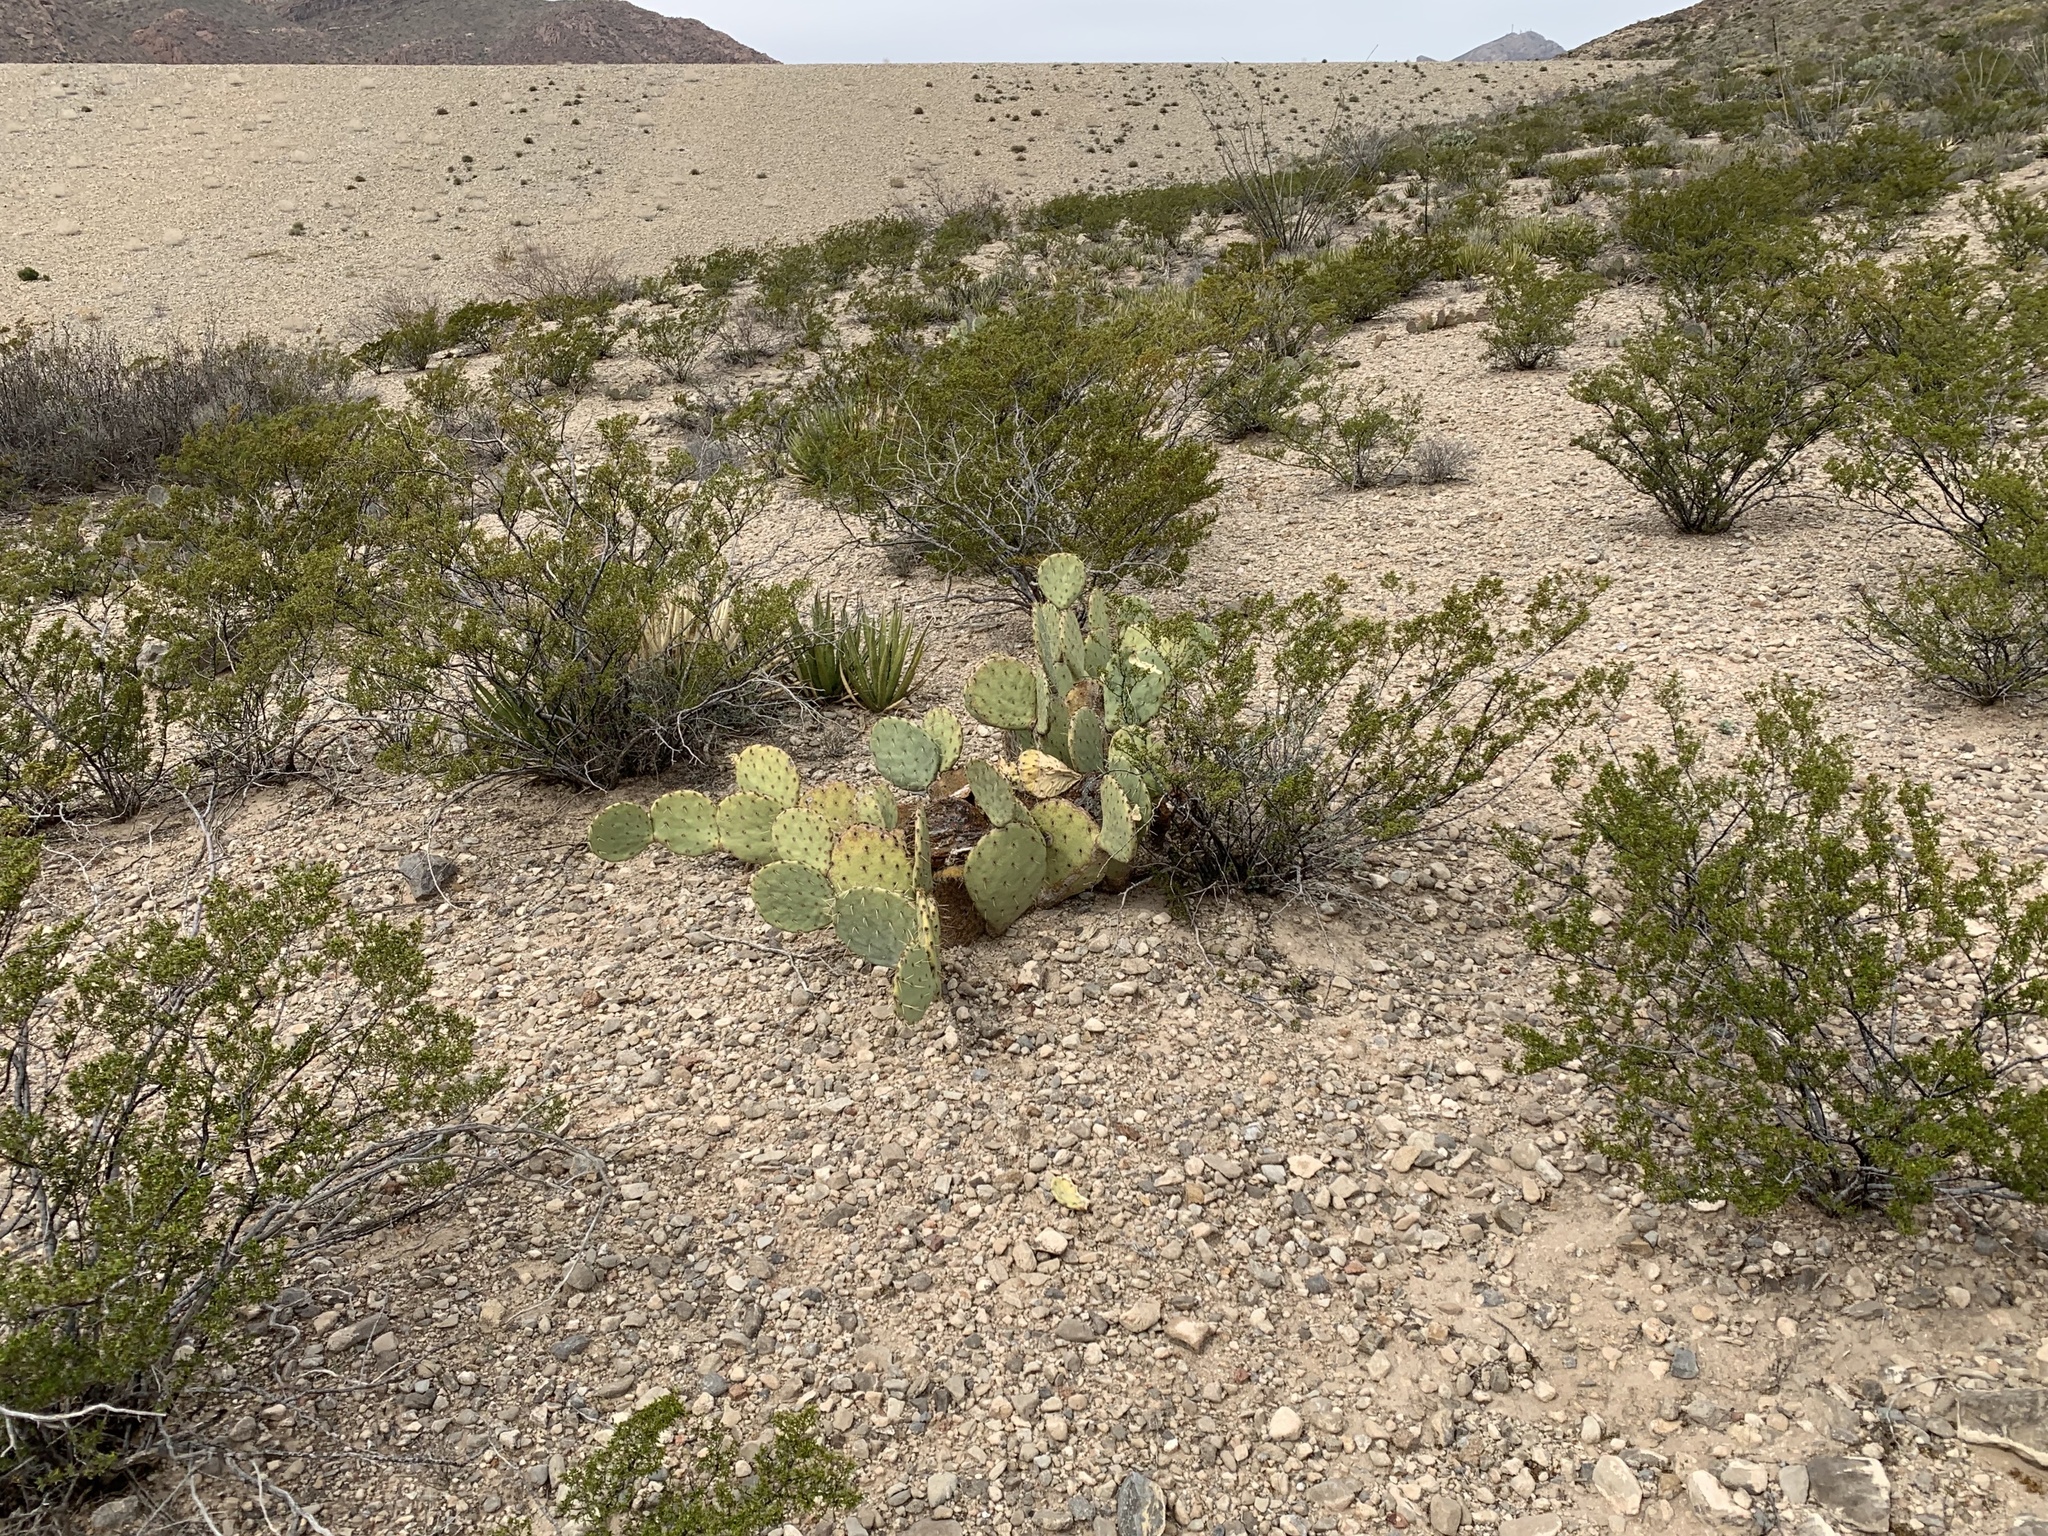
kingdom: Plantae
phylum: Tracheophyta
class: Magnoliopsida
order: Caryophyllales
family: Cactaceae
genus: Opuntia
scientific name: Opuntia orbiculata
